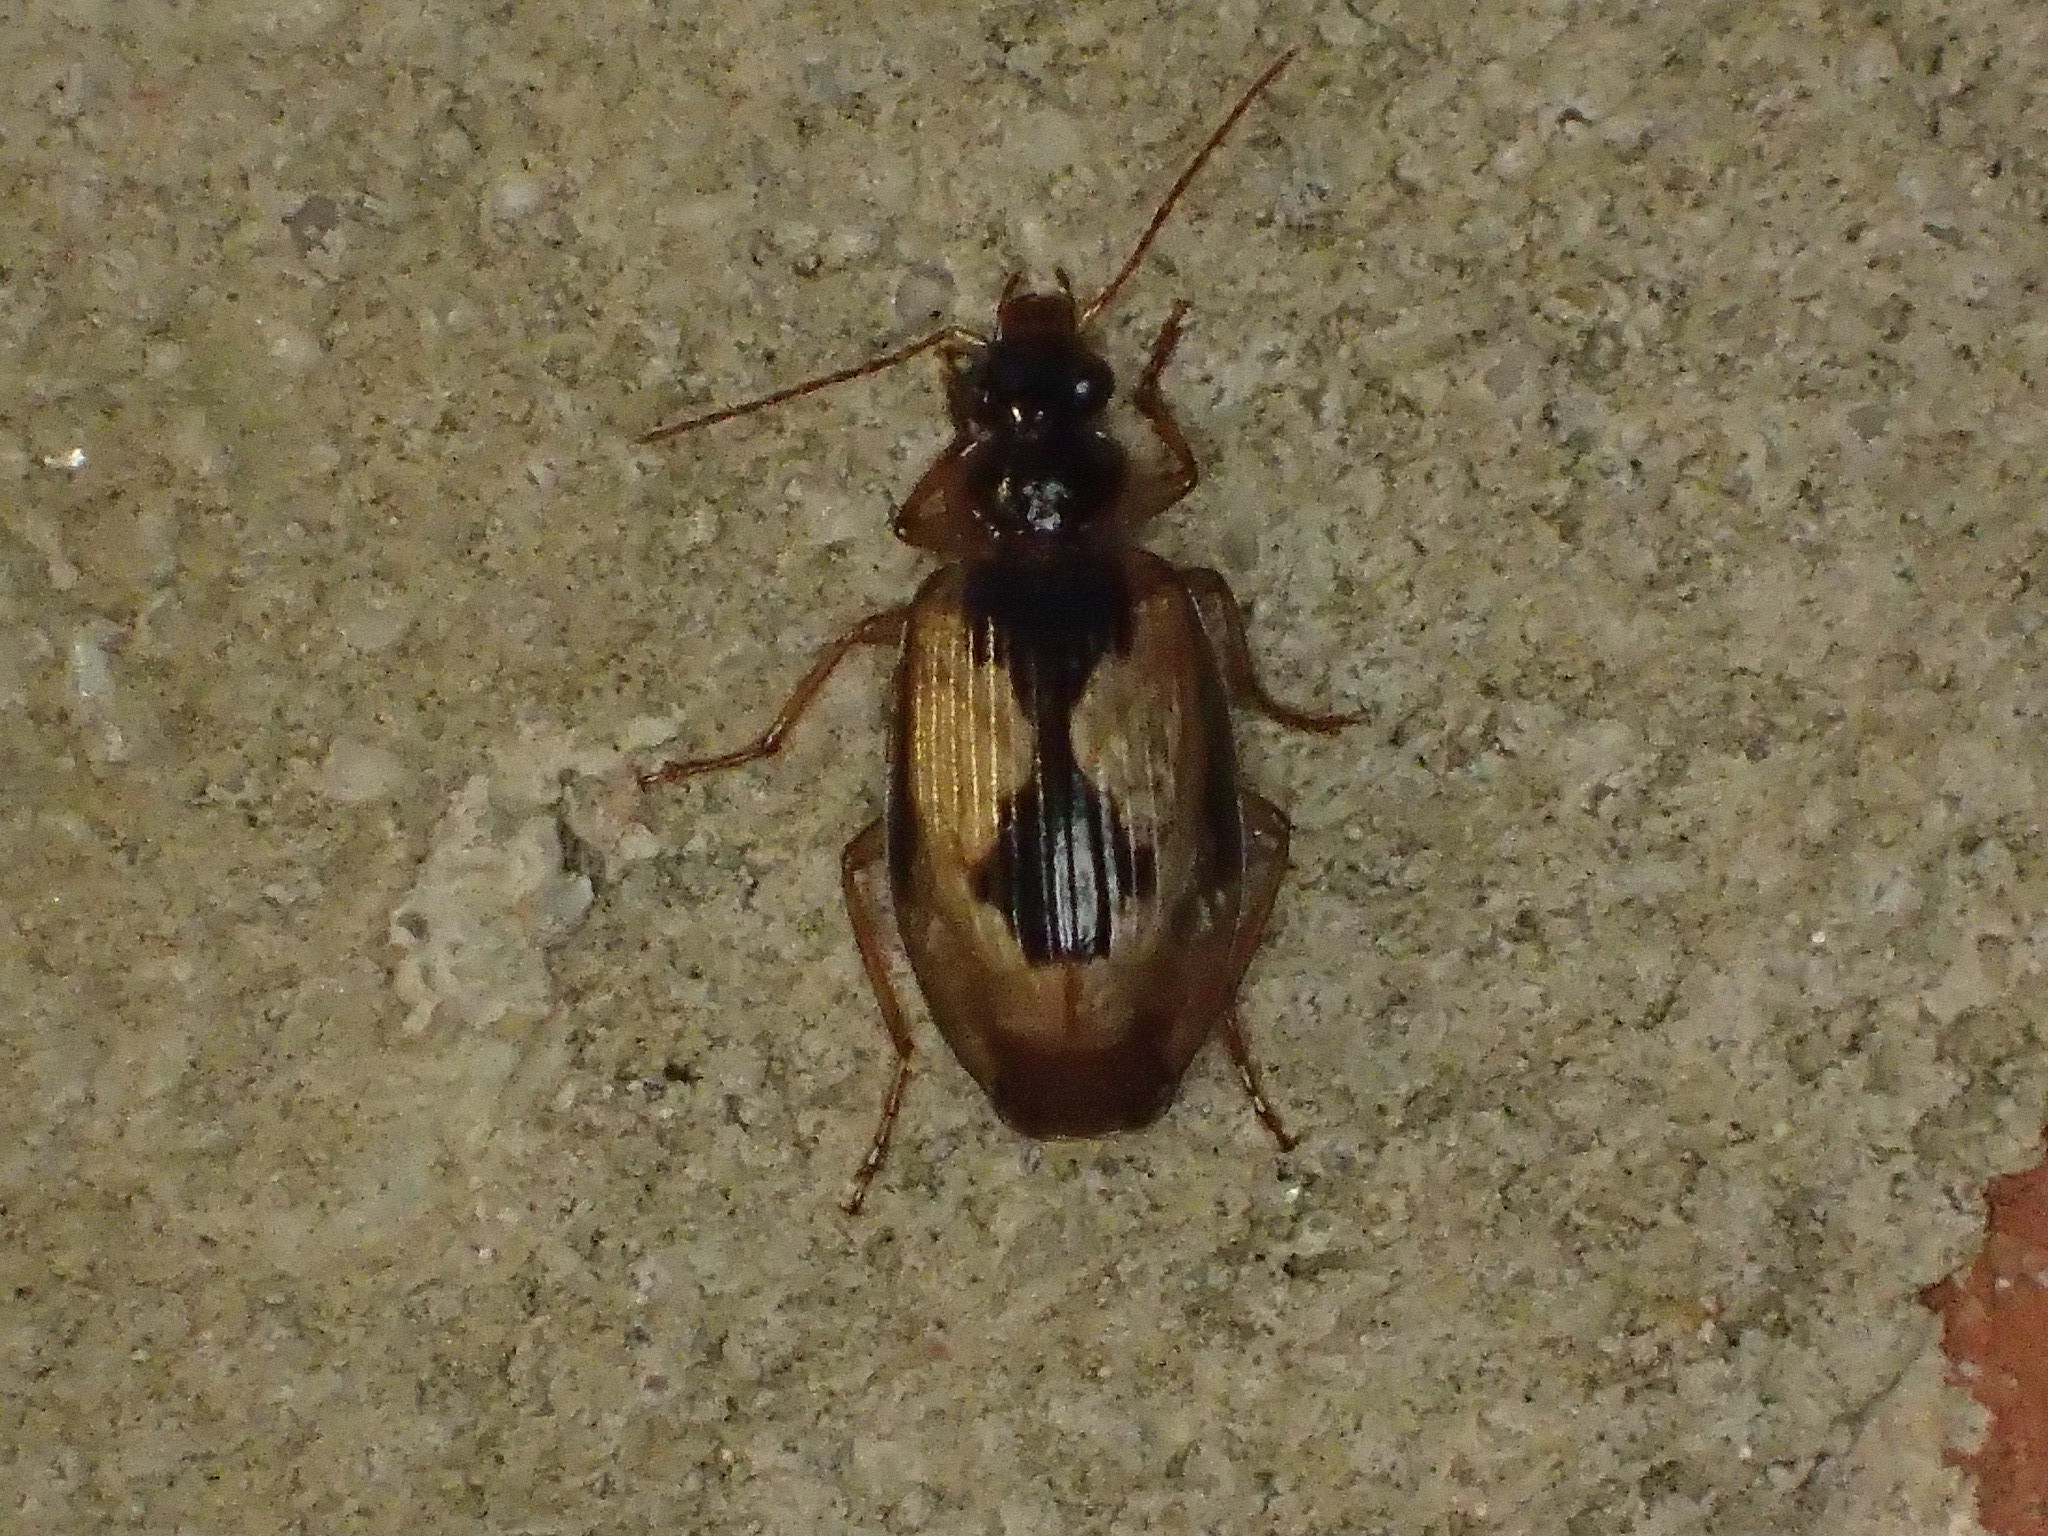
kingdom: Animalia
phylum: Arthropoda
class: Insecta
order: Coleoptera
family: Carabidae
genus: Lebia
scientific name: Lebia fuscata
